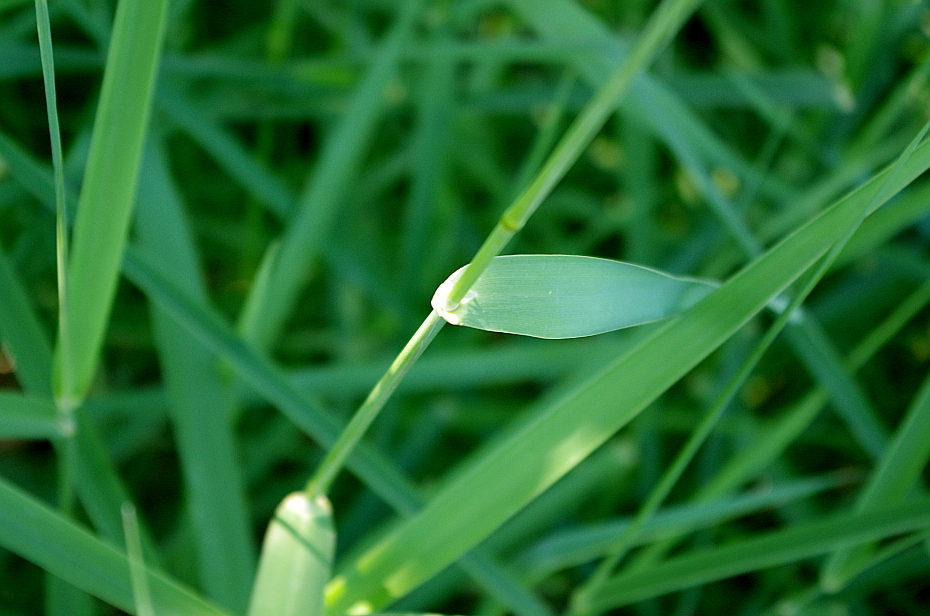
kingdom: Plantae
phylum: Tracheophyta
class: Liliopsida
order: Poales
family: Poaceae
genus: Phalaris
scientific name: Phalaris arundinacea
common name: Reed canary-grass
